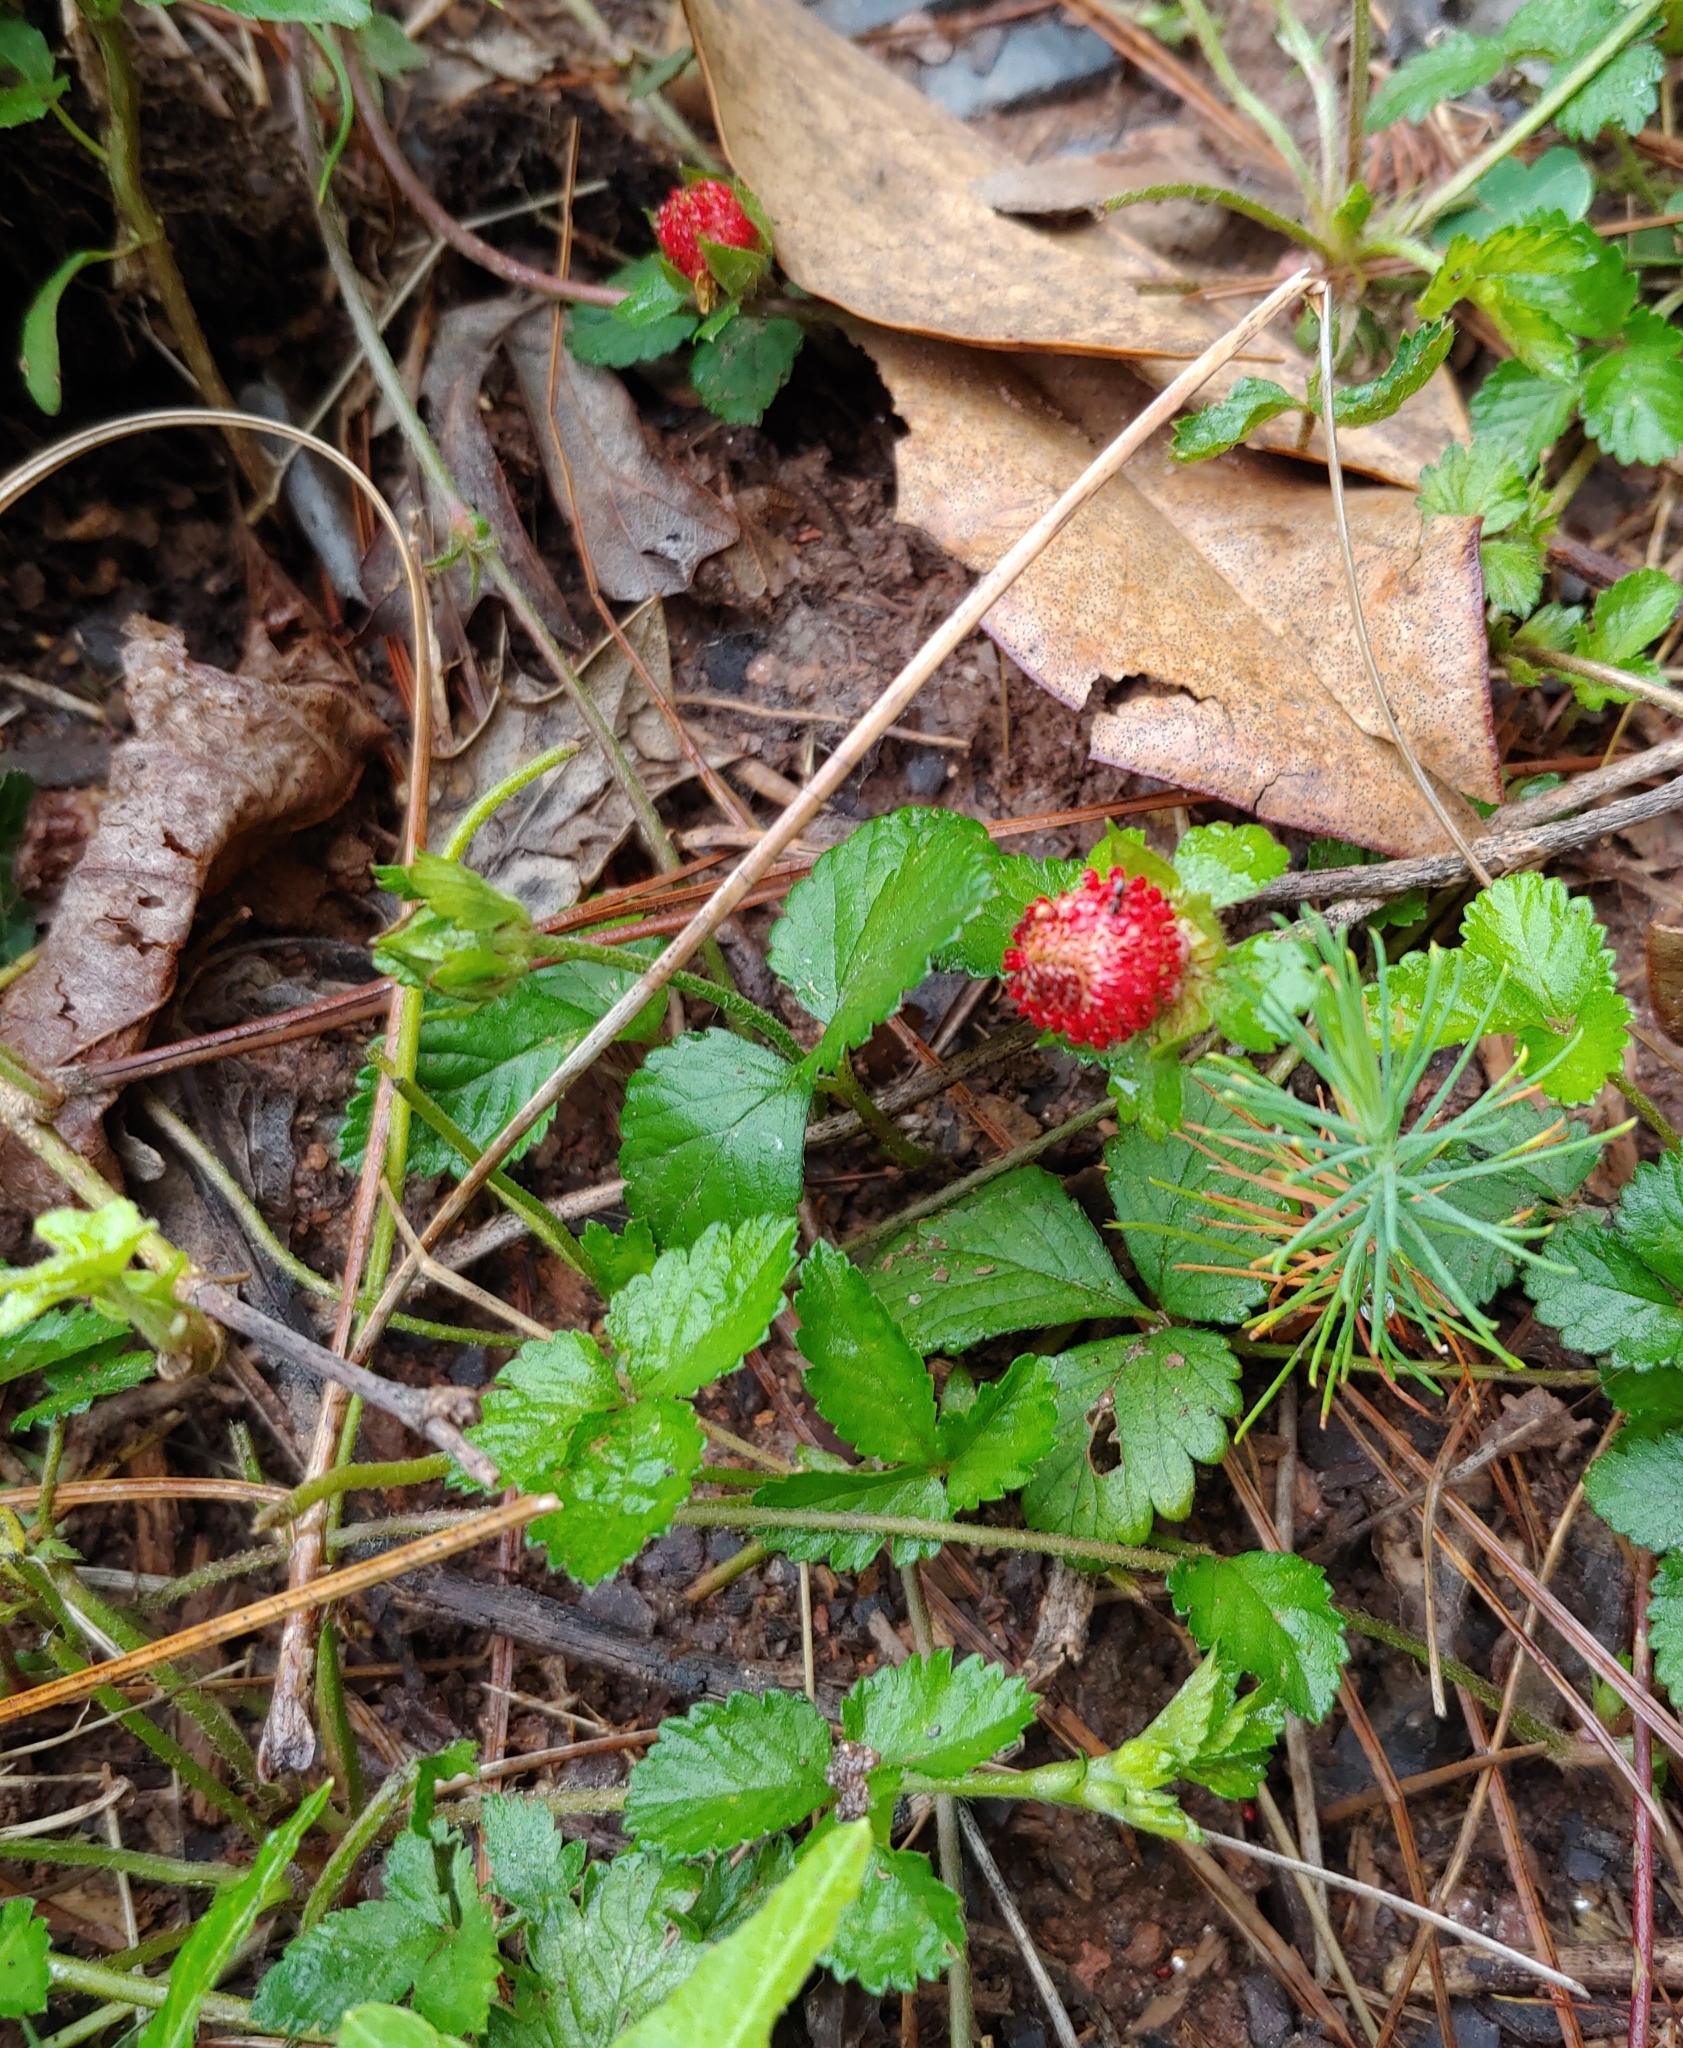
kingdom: Plantae
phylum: Tracheophyta
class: Magnoliopsida
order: Rosales
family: Rosaceae
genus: Potentilla
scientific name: Potentilla indica
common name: Yellow-flowered strawberry
